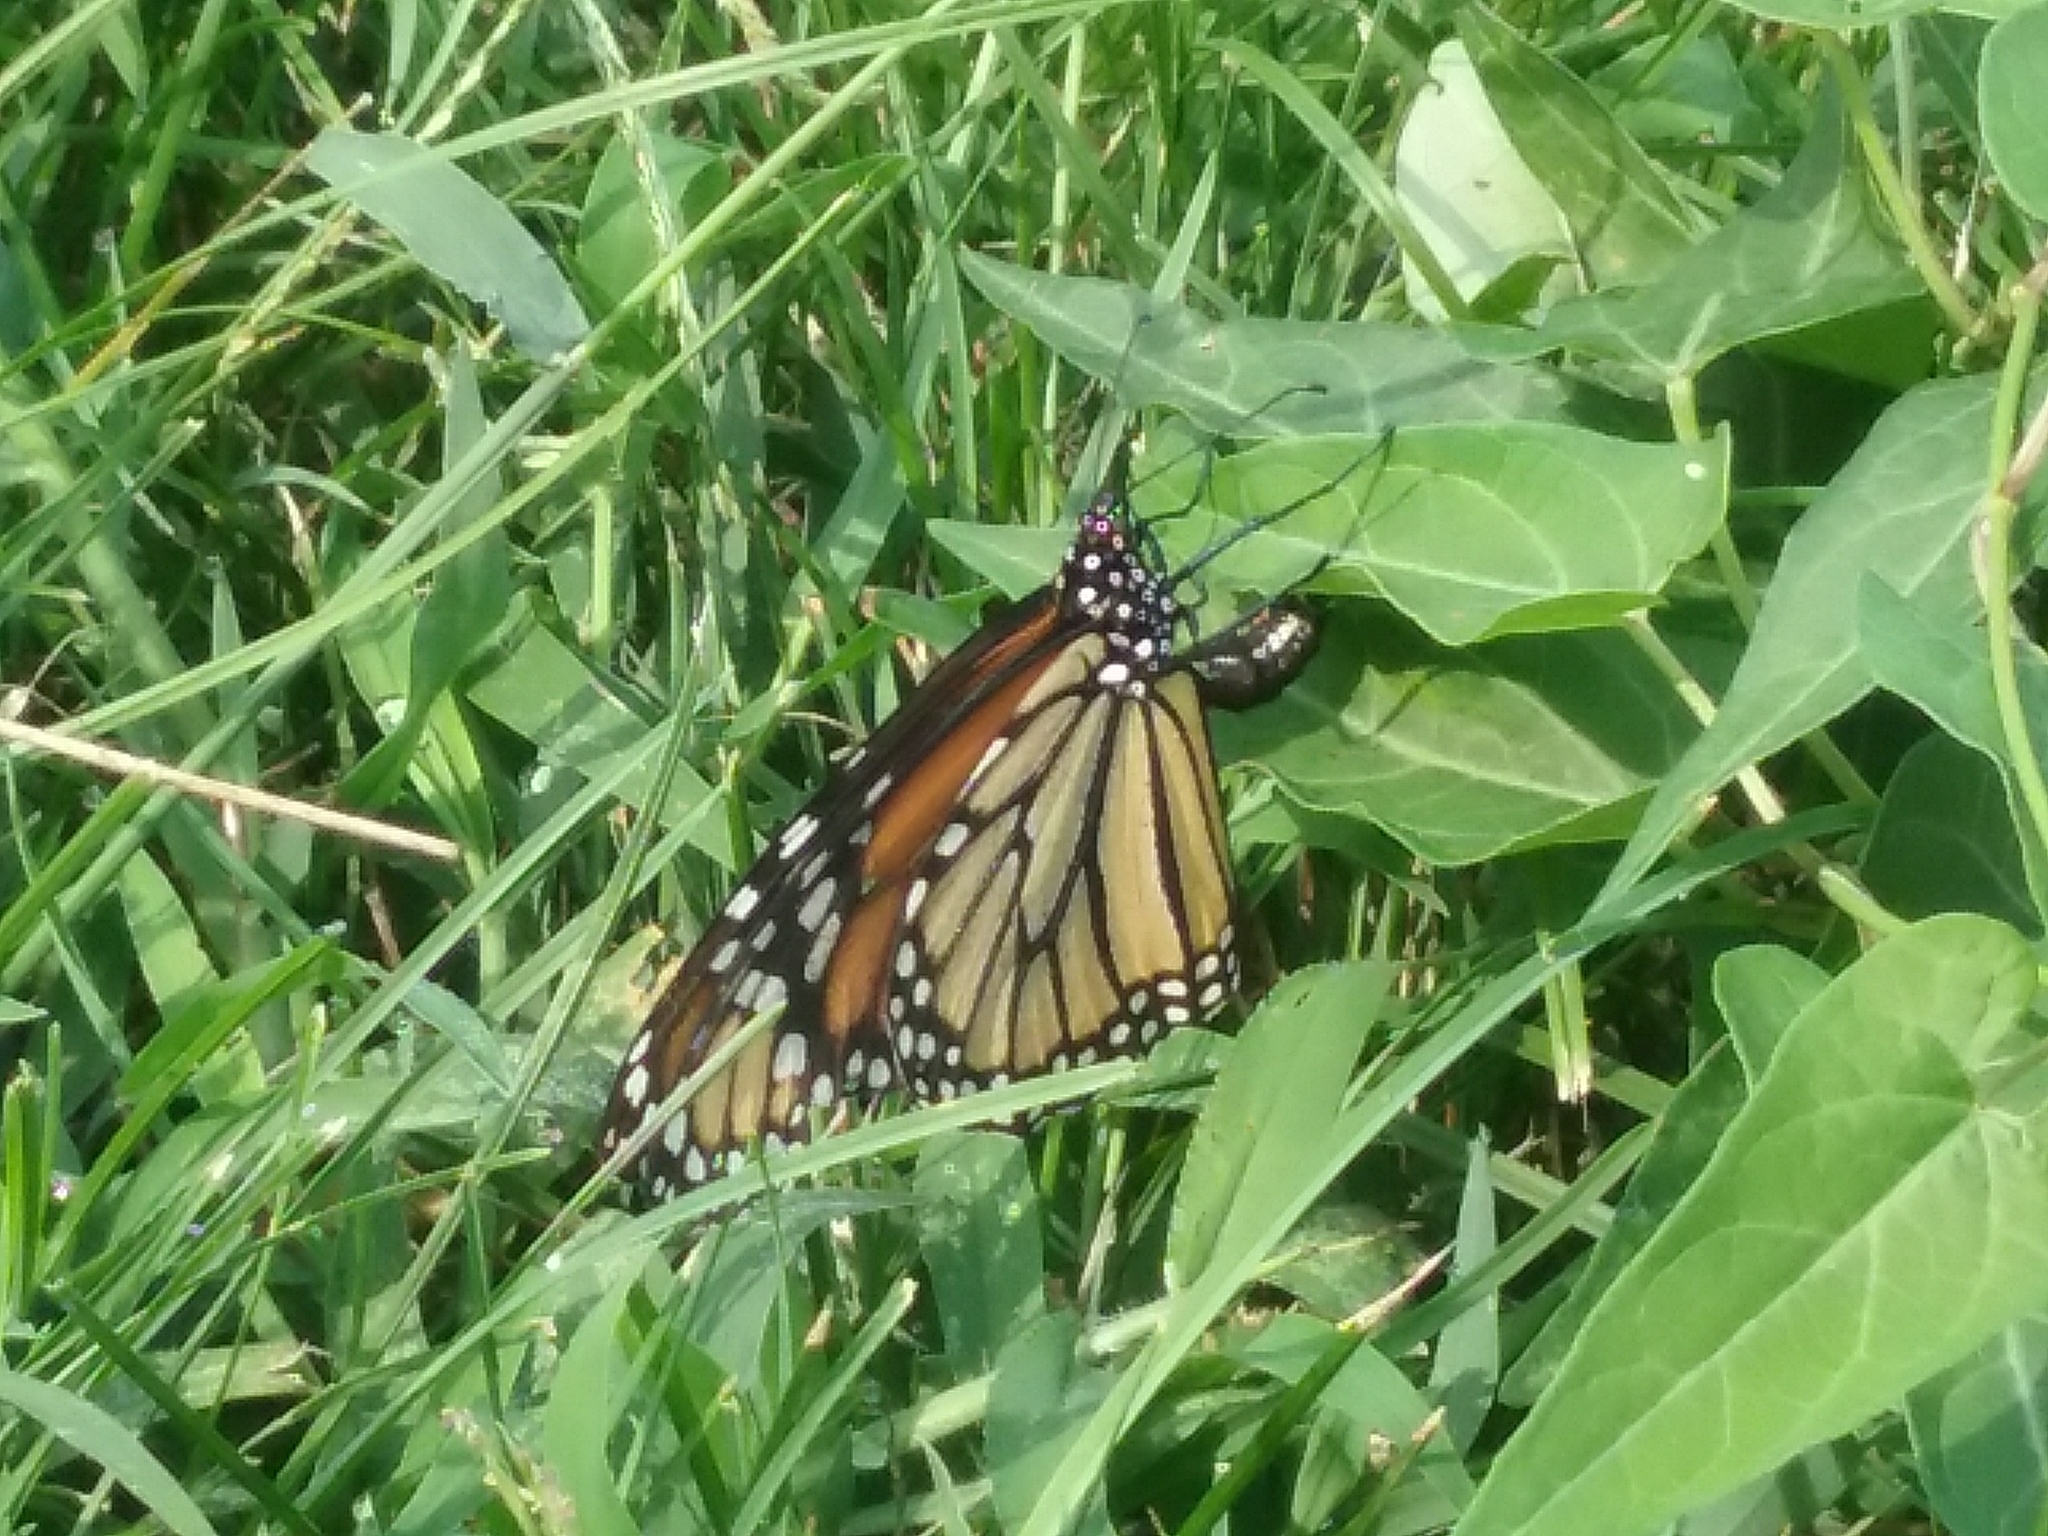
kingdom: Animalia
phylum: Arthropoda
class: Insecta
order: Lepidoptera
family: Nymphalidae
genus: Danaus
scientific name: Danaus plexippus
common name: Monarch
